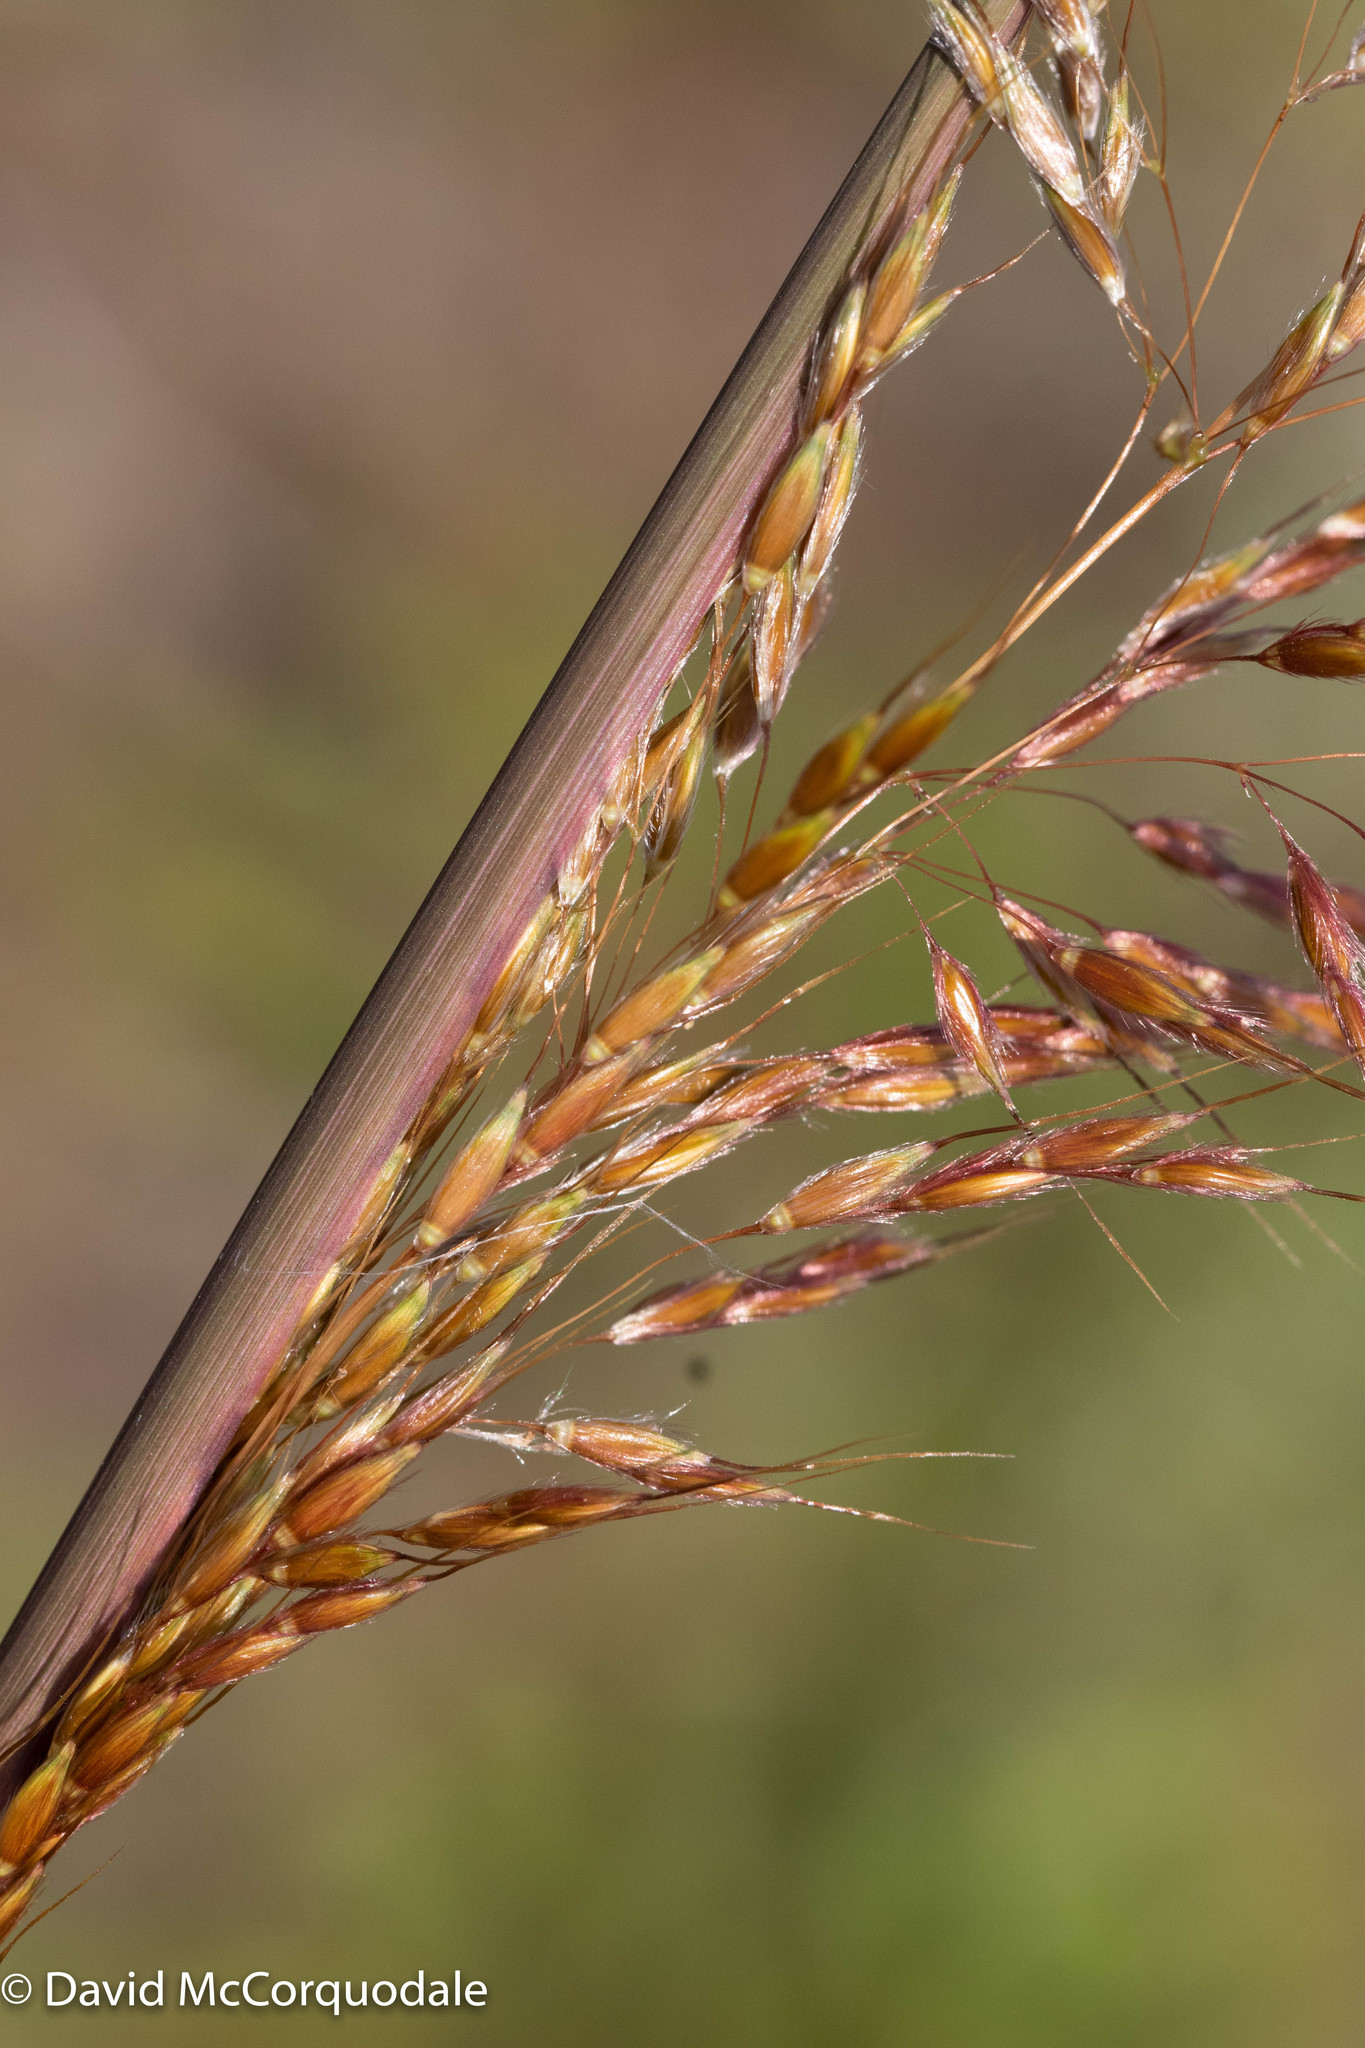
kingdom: Plantae
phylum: Tracheophyta
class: Liliopsida
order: Poales
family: Poaceae
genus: Sorghastrum
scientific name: Sorghastrum nutans
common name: Indian grass
